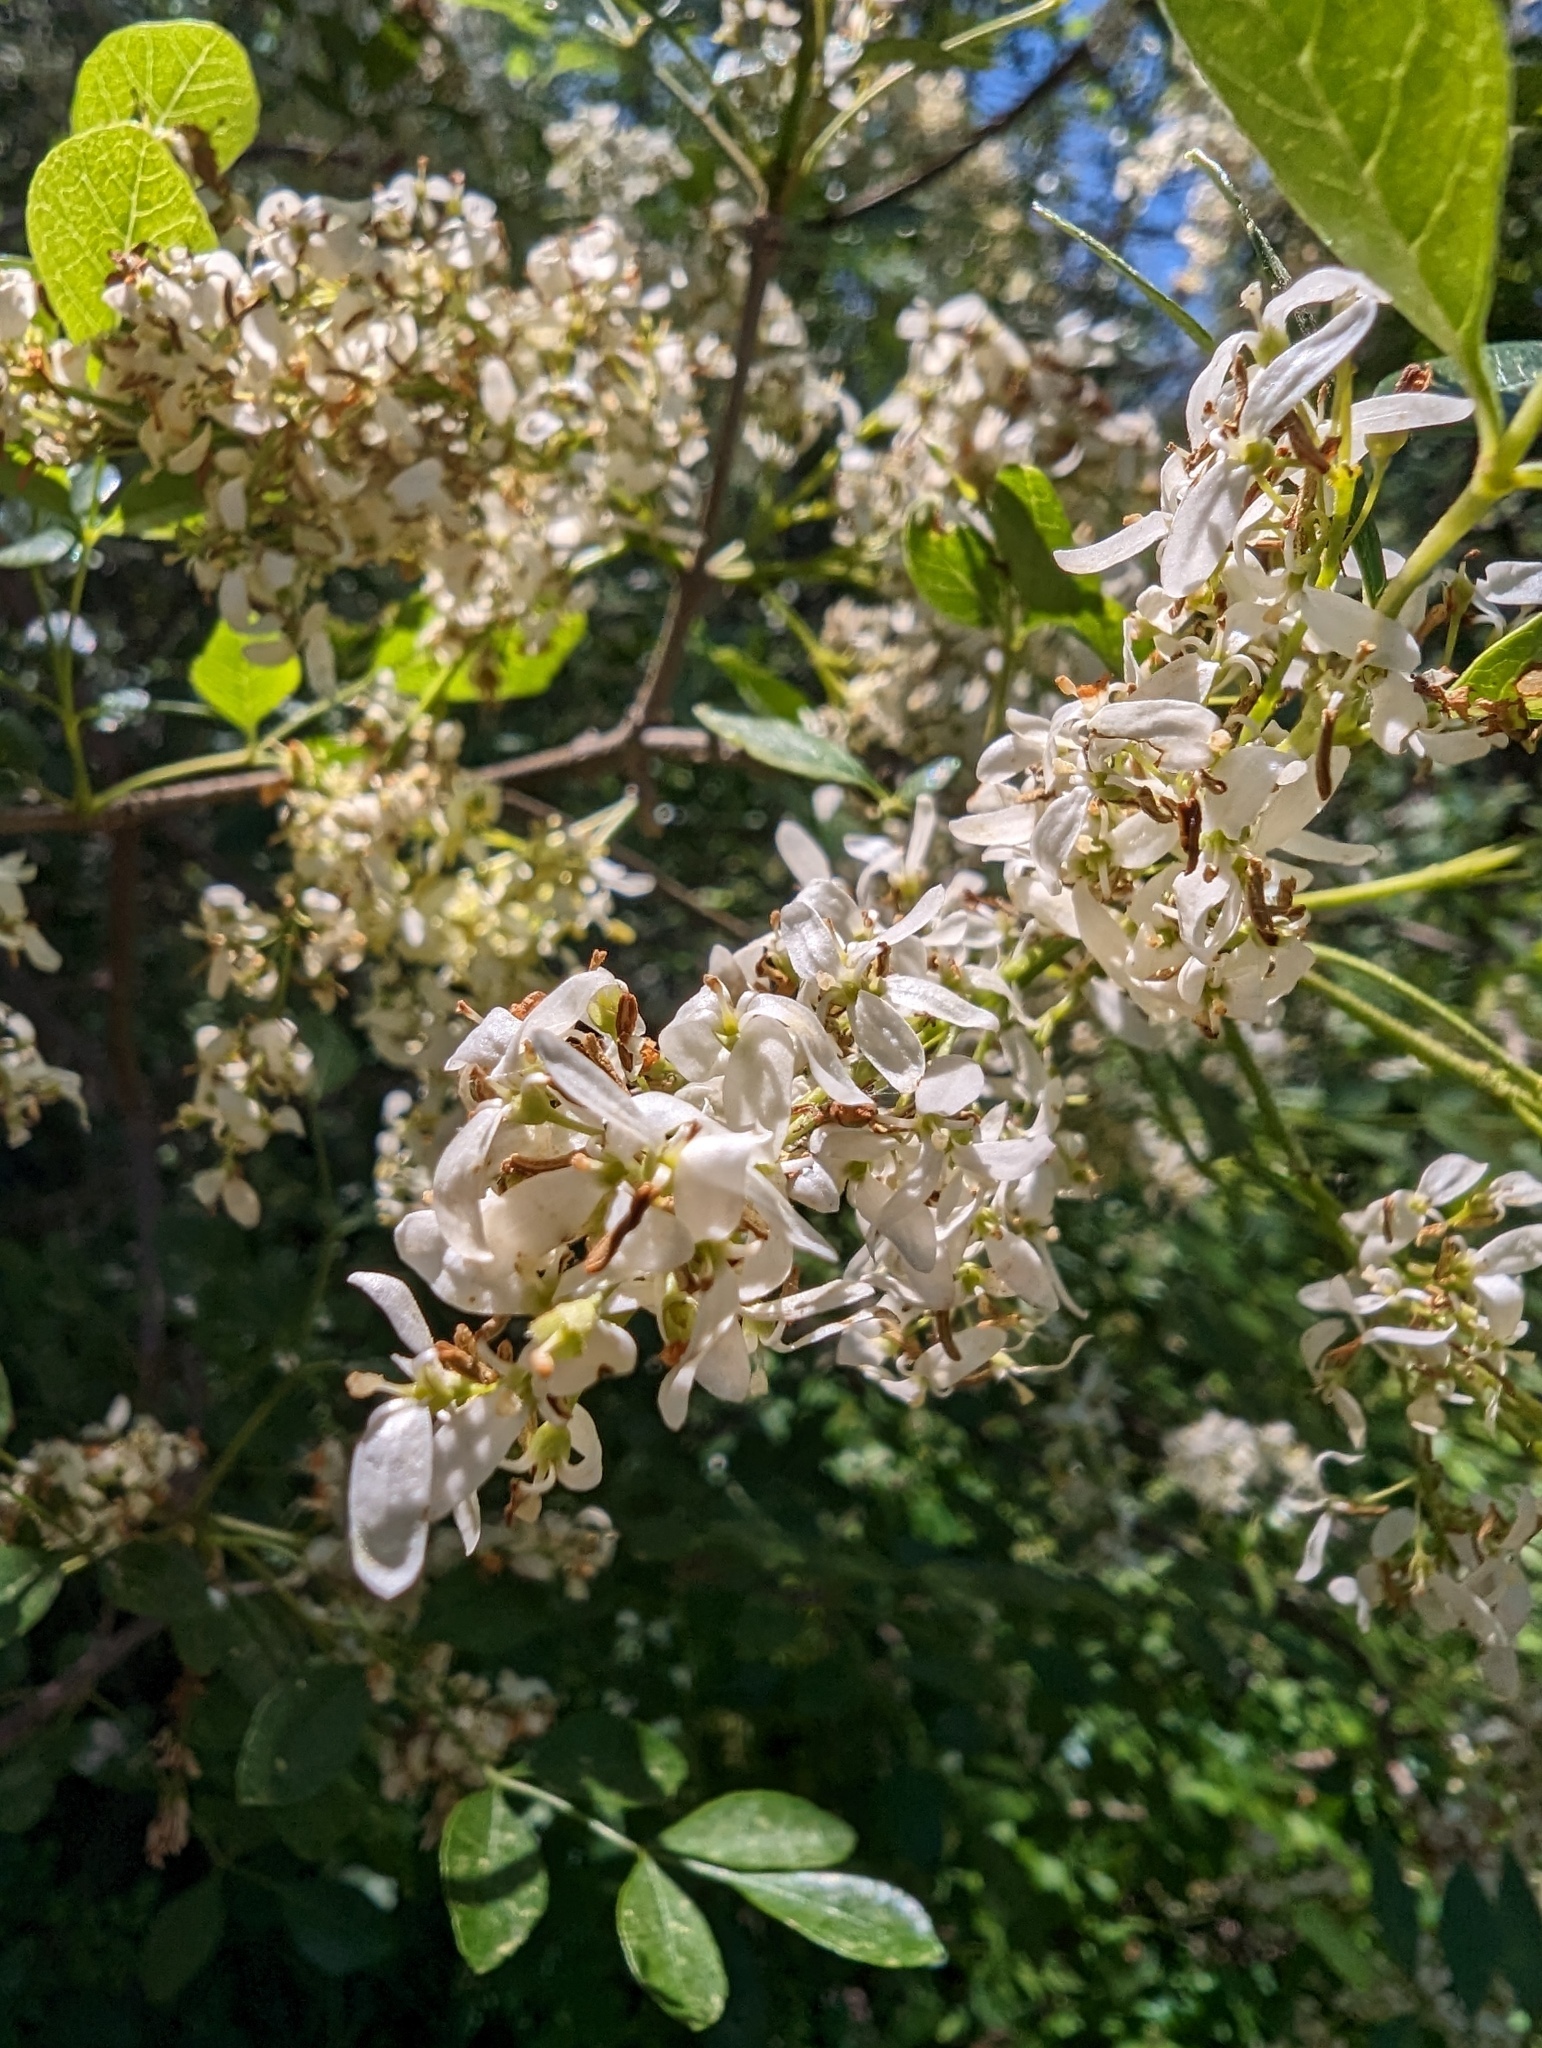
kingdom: Plantae
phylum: Tracheophyta
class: Magnoliopsida
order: Lamiales
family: Oleaceae
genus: Fraxinus
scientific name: Fraxinus dipetala
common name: California ash
